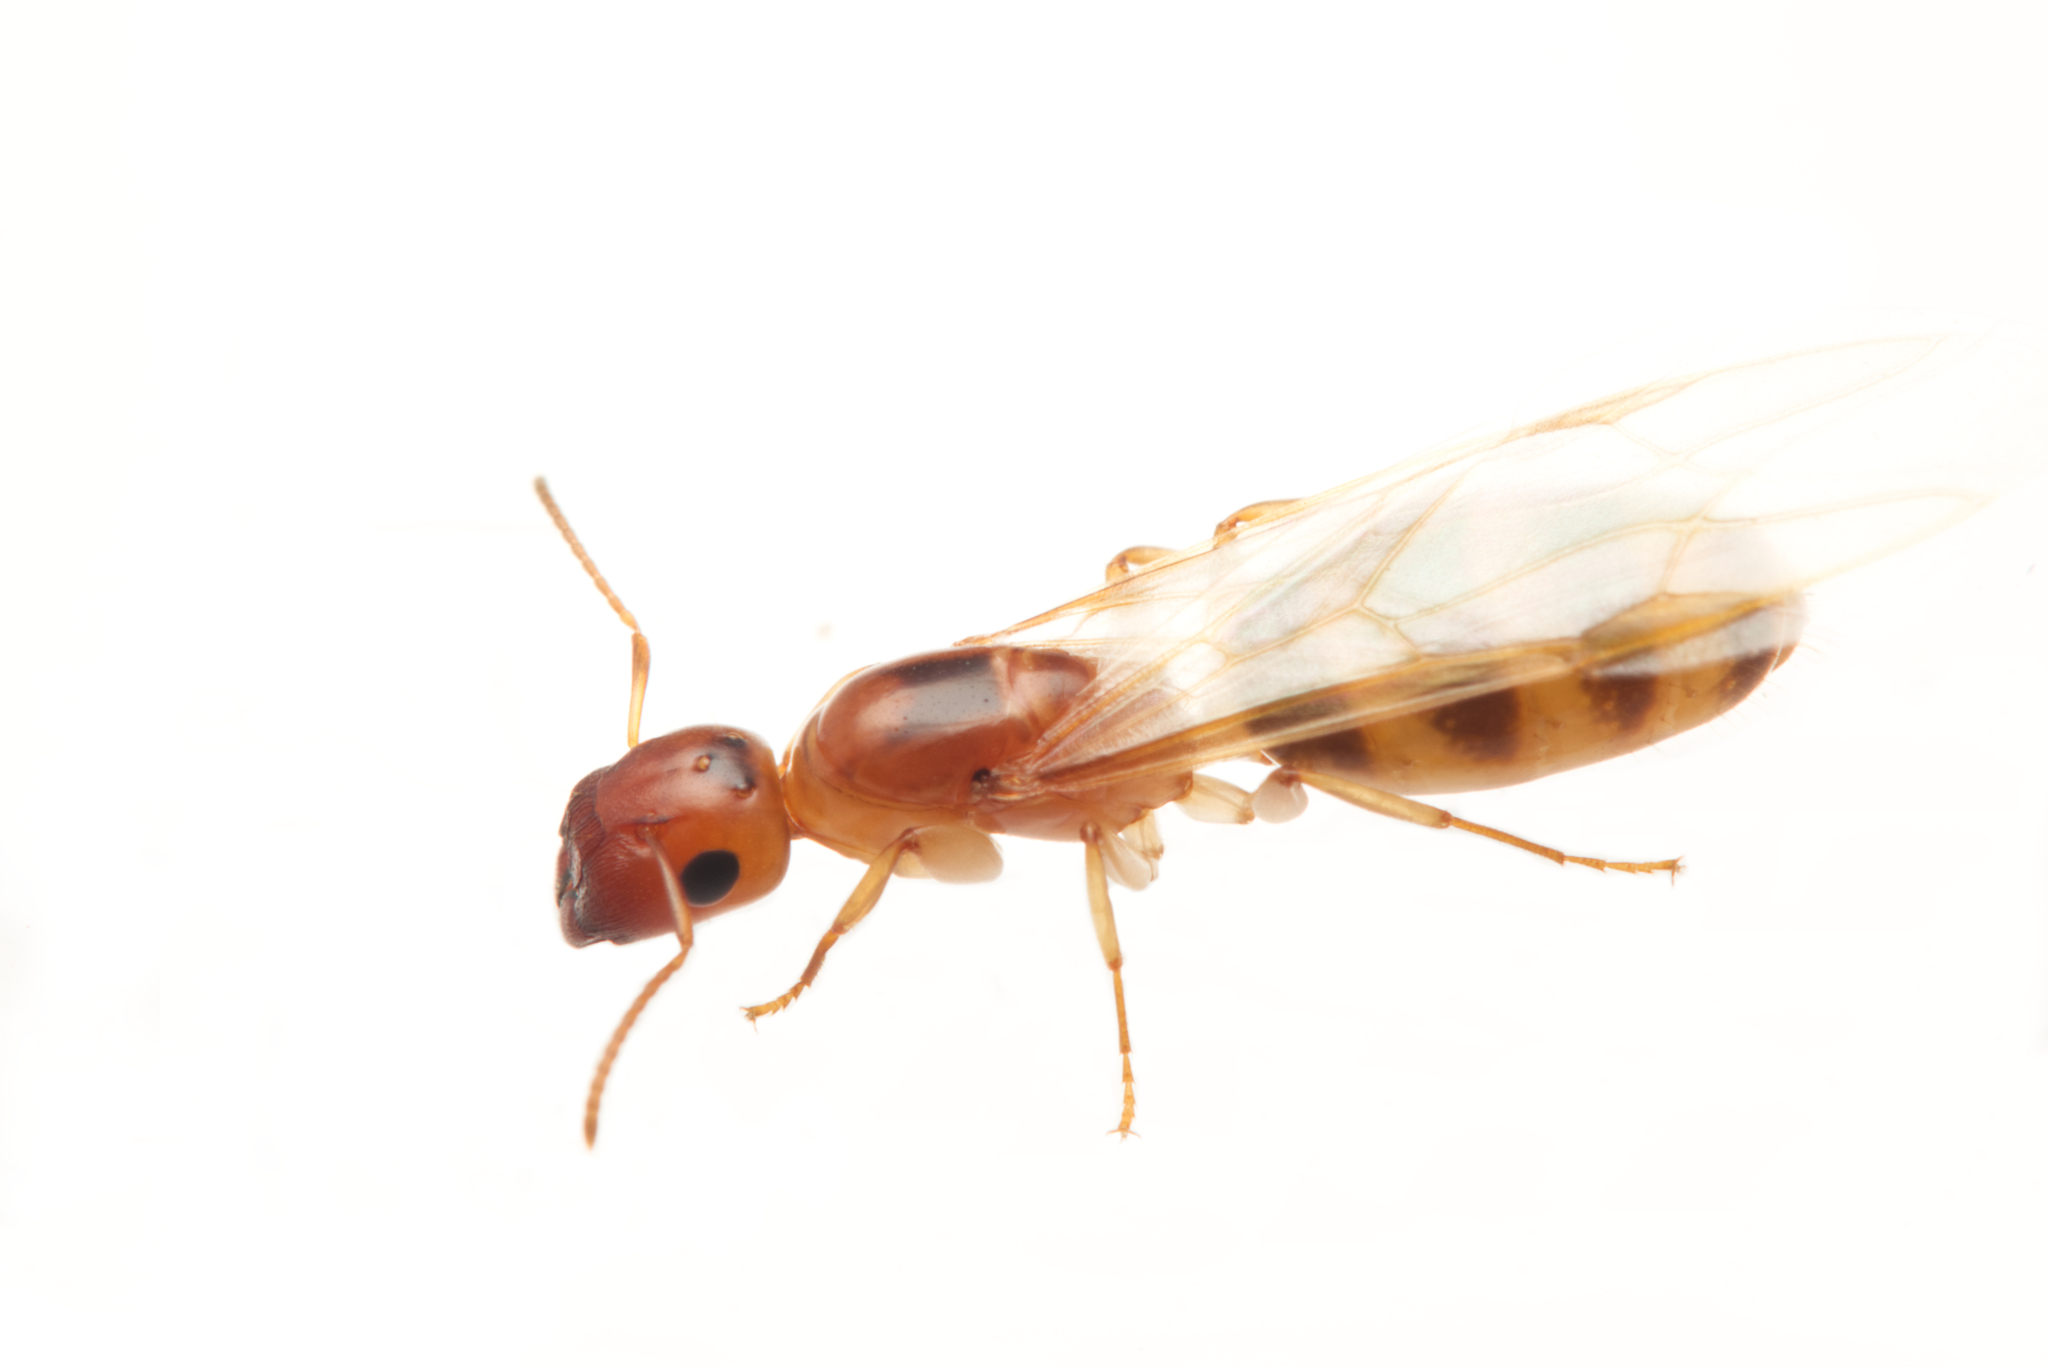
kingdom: Animalia
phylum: Arthropoda
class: Insecta
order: Hymenoptera
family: Formicidae
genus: Colobopsis
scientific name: Colobopsis
